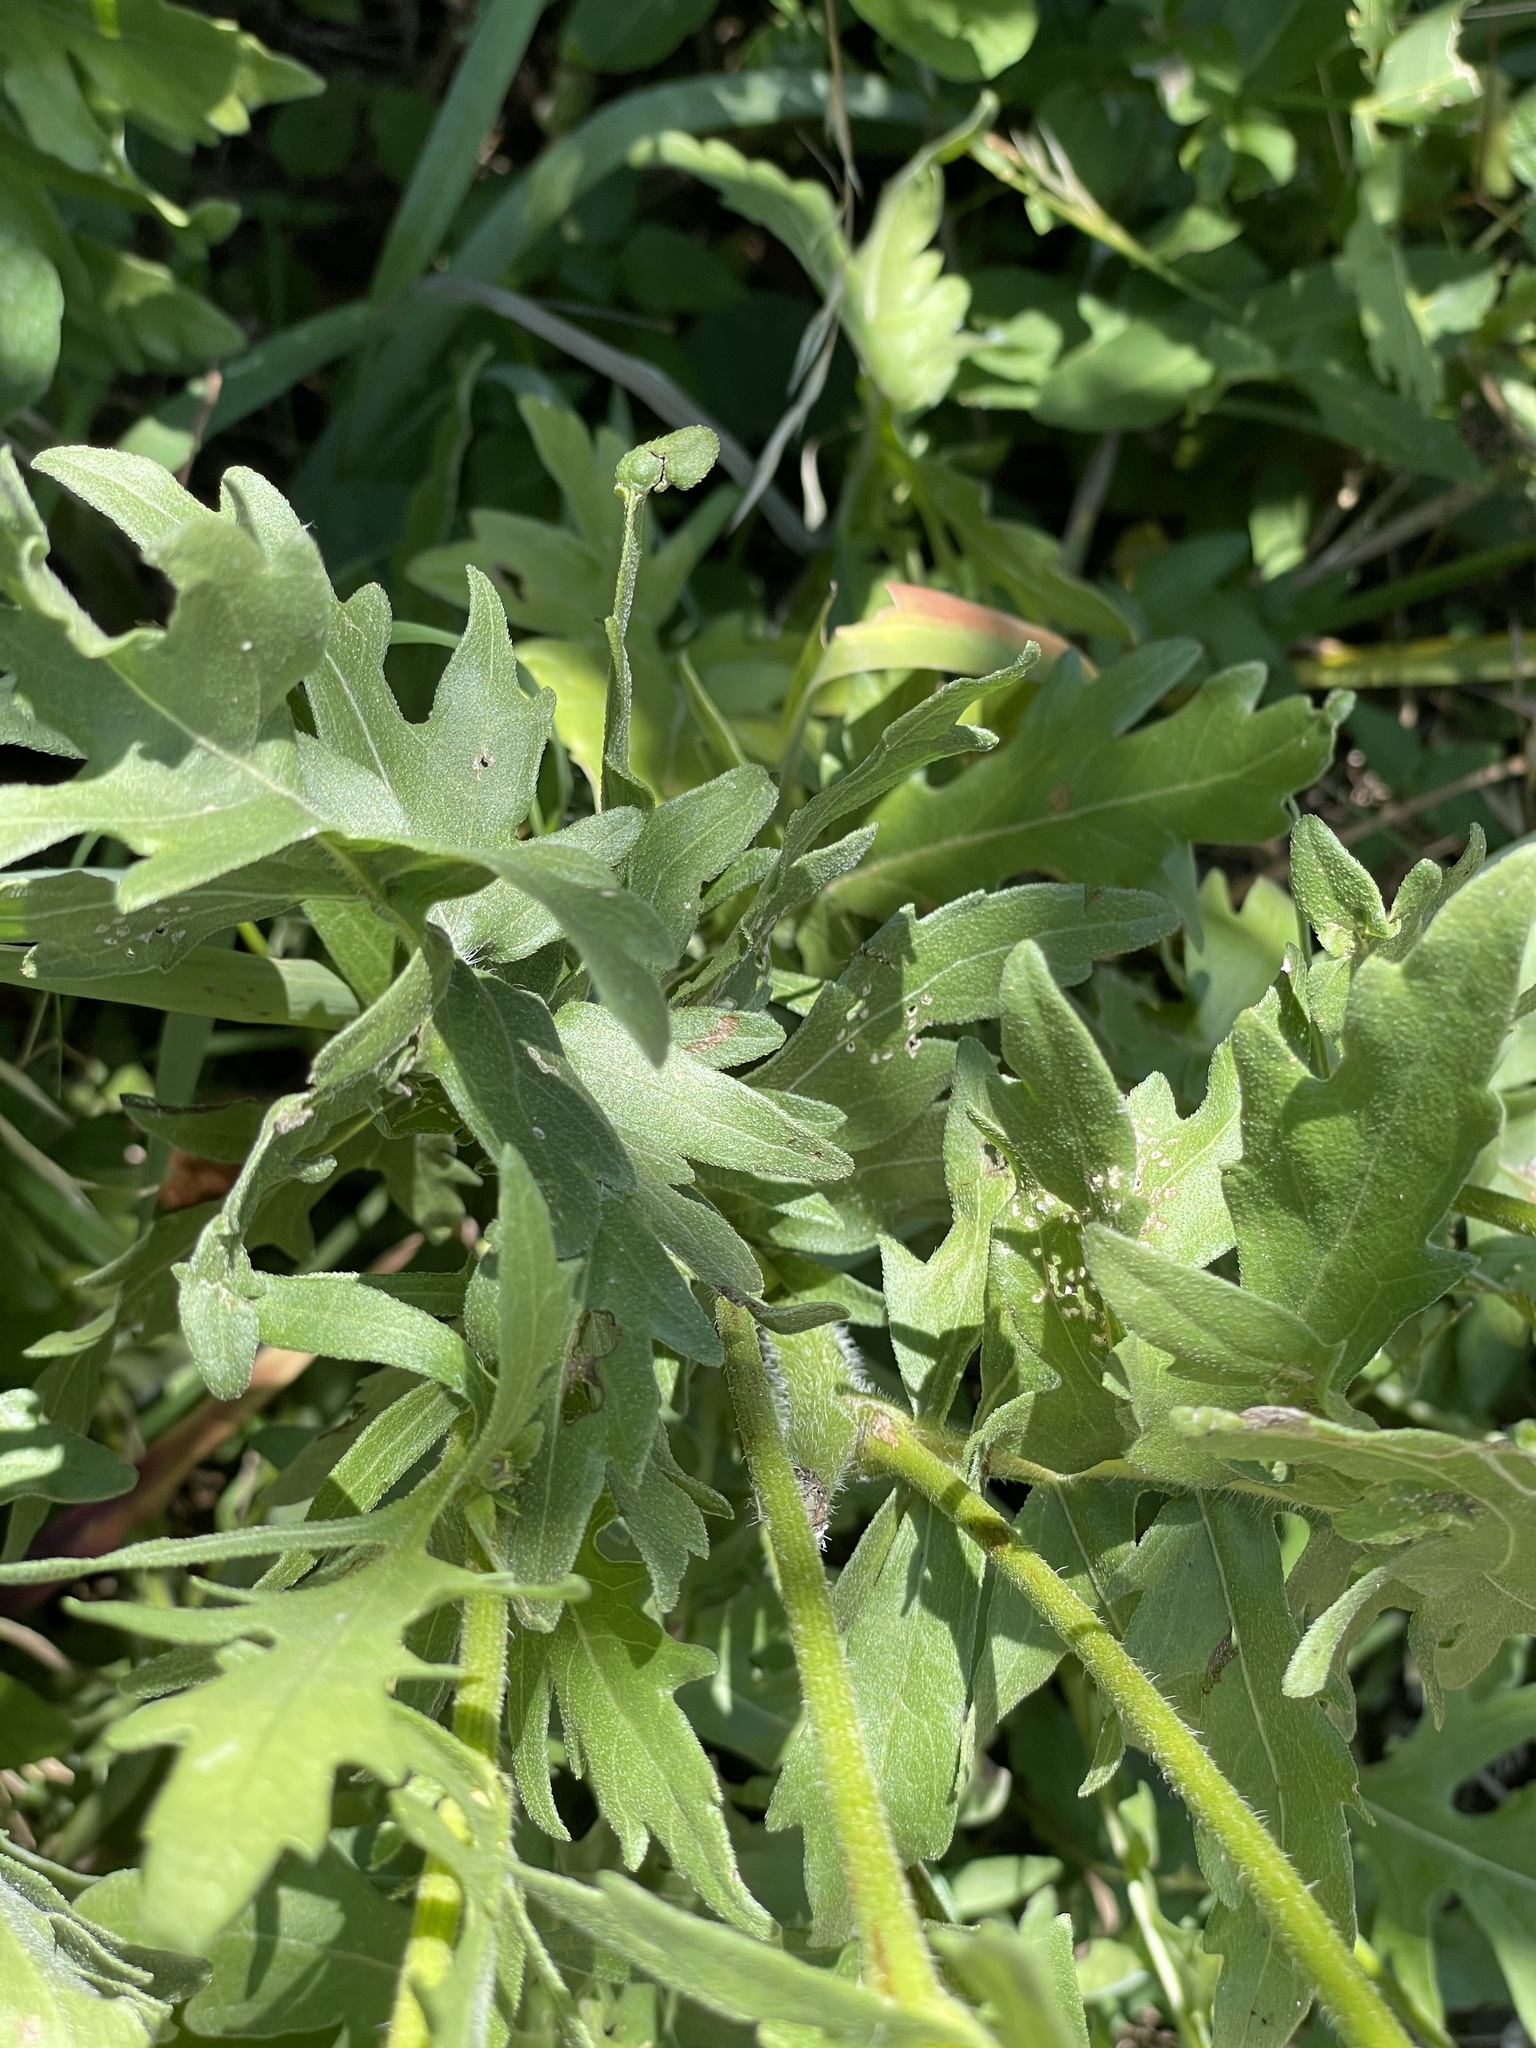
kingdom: Plantae
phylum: Tracheophyta
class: Magnoliopsida
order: Asterales
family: Asteraceae
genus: Engelmannia
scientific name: Engelmannia peristenia
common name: Engelmann's daisy
